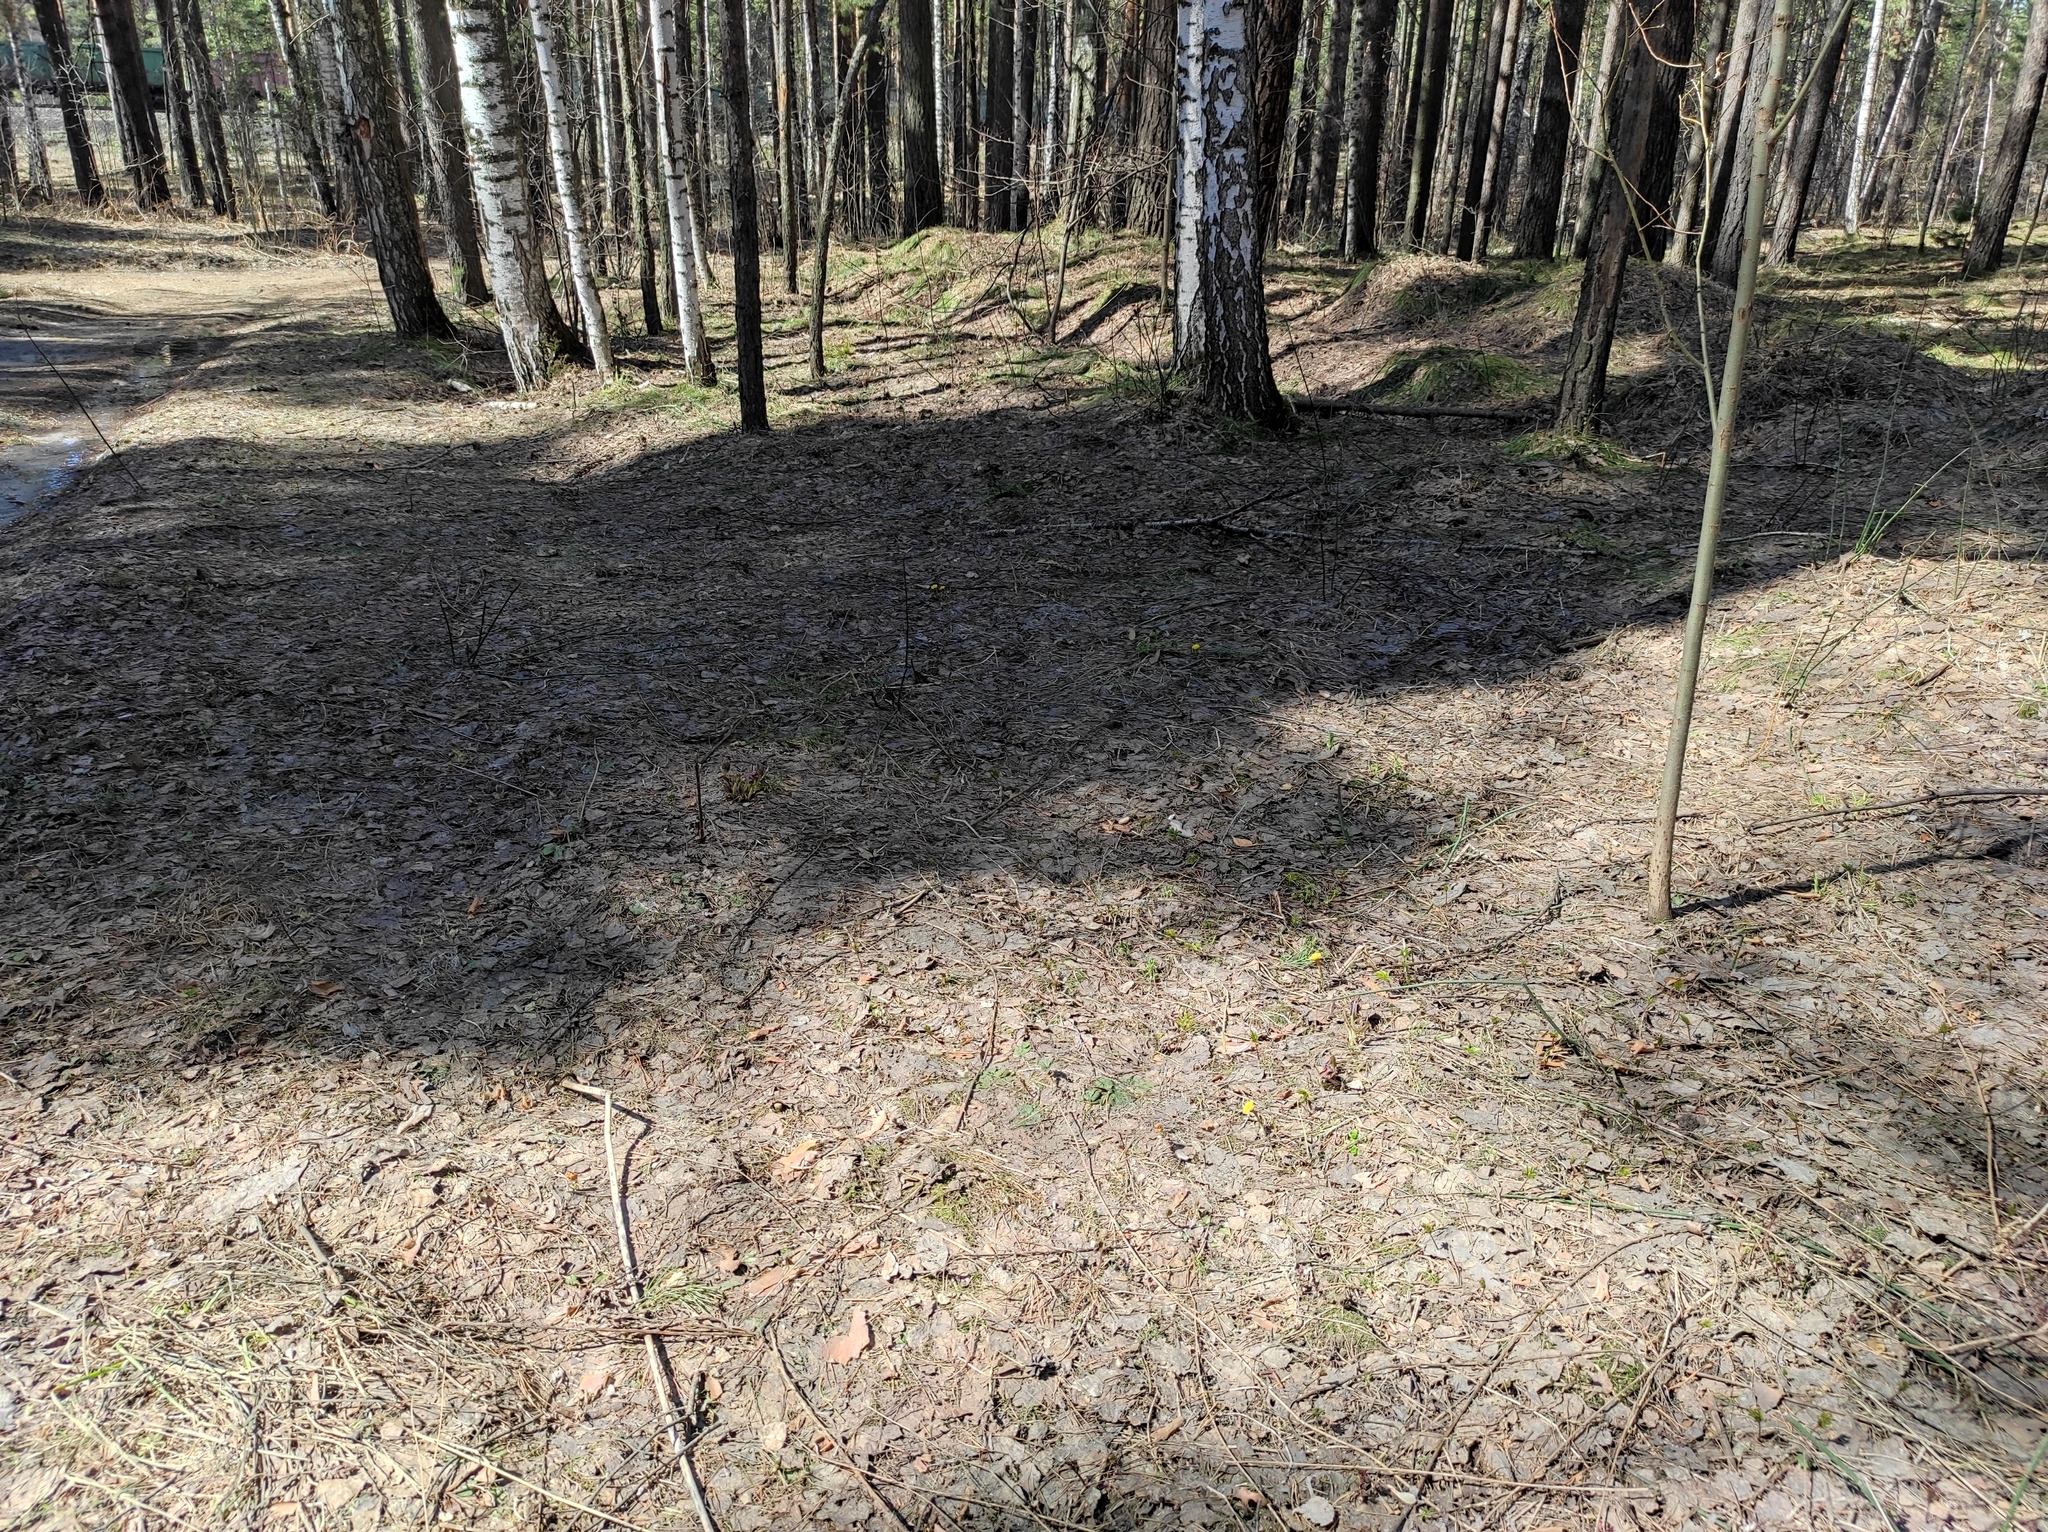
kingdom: Plantae
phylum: Tracheophyta
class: Magnoliopsida
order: Boraginales
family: Boraginaceae
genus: Pulmonaria
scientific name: Pulmonaria mollis
